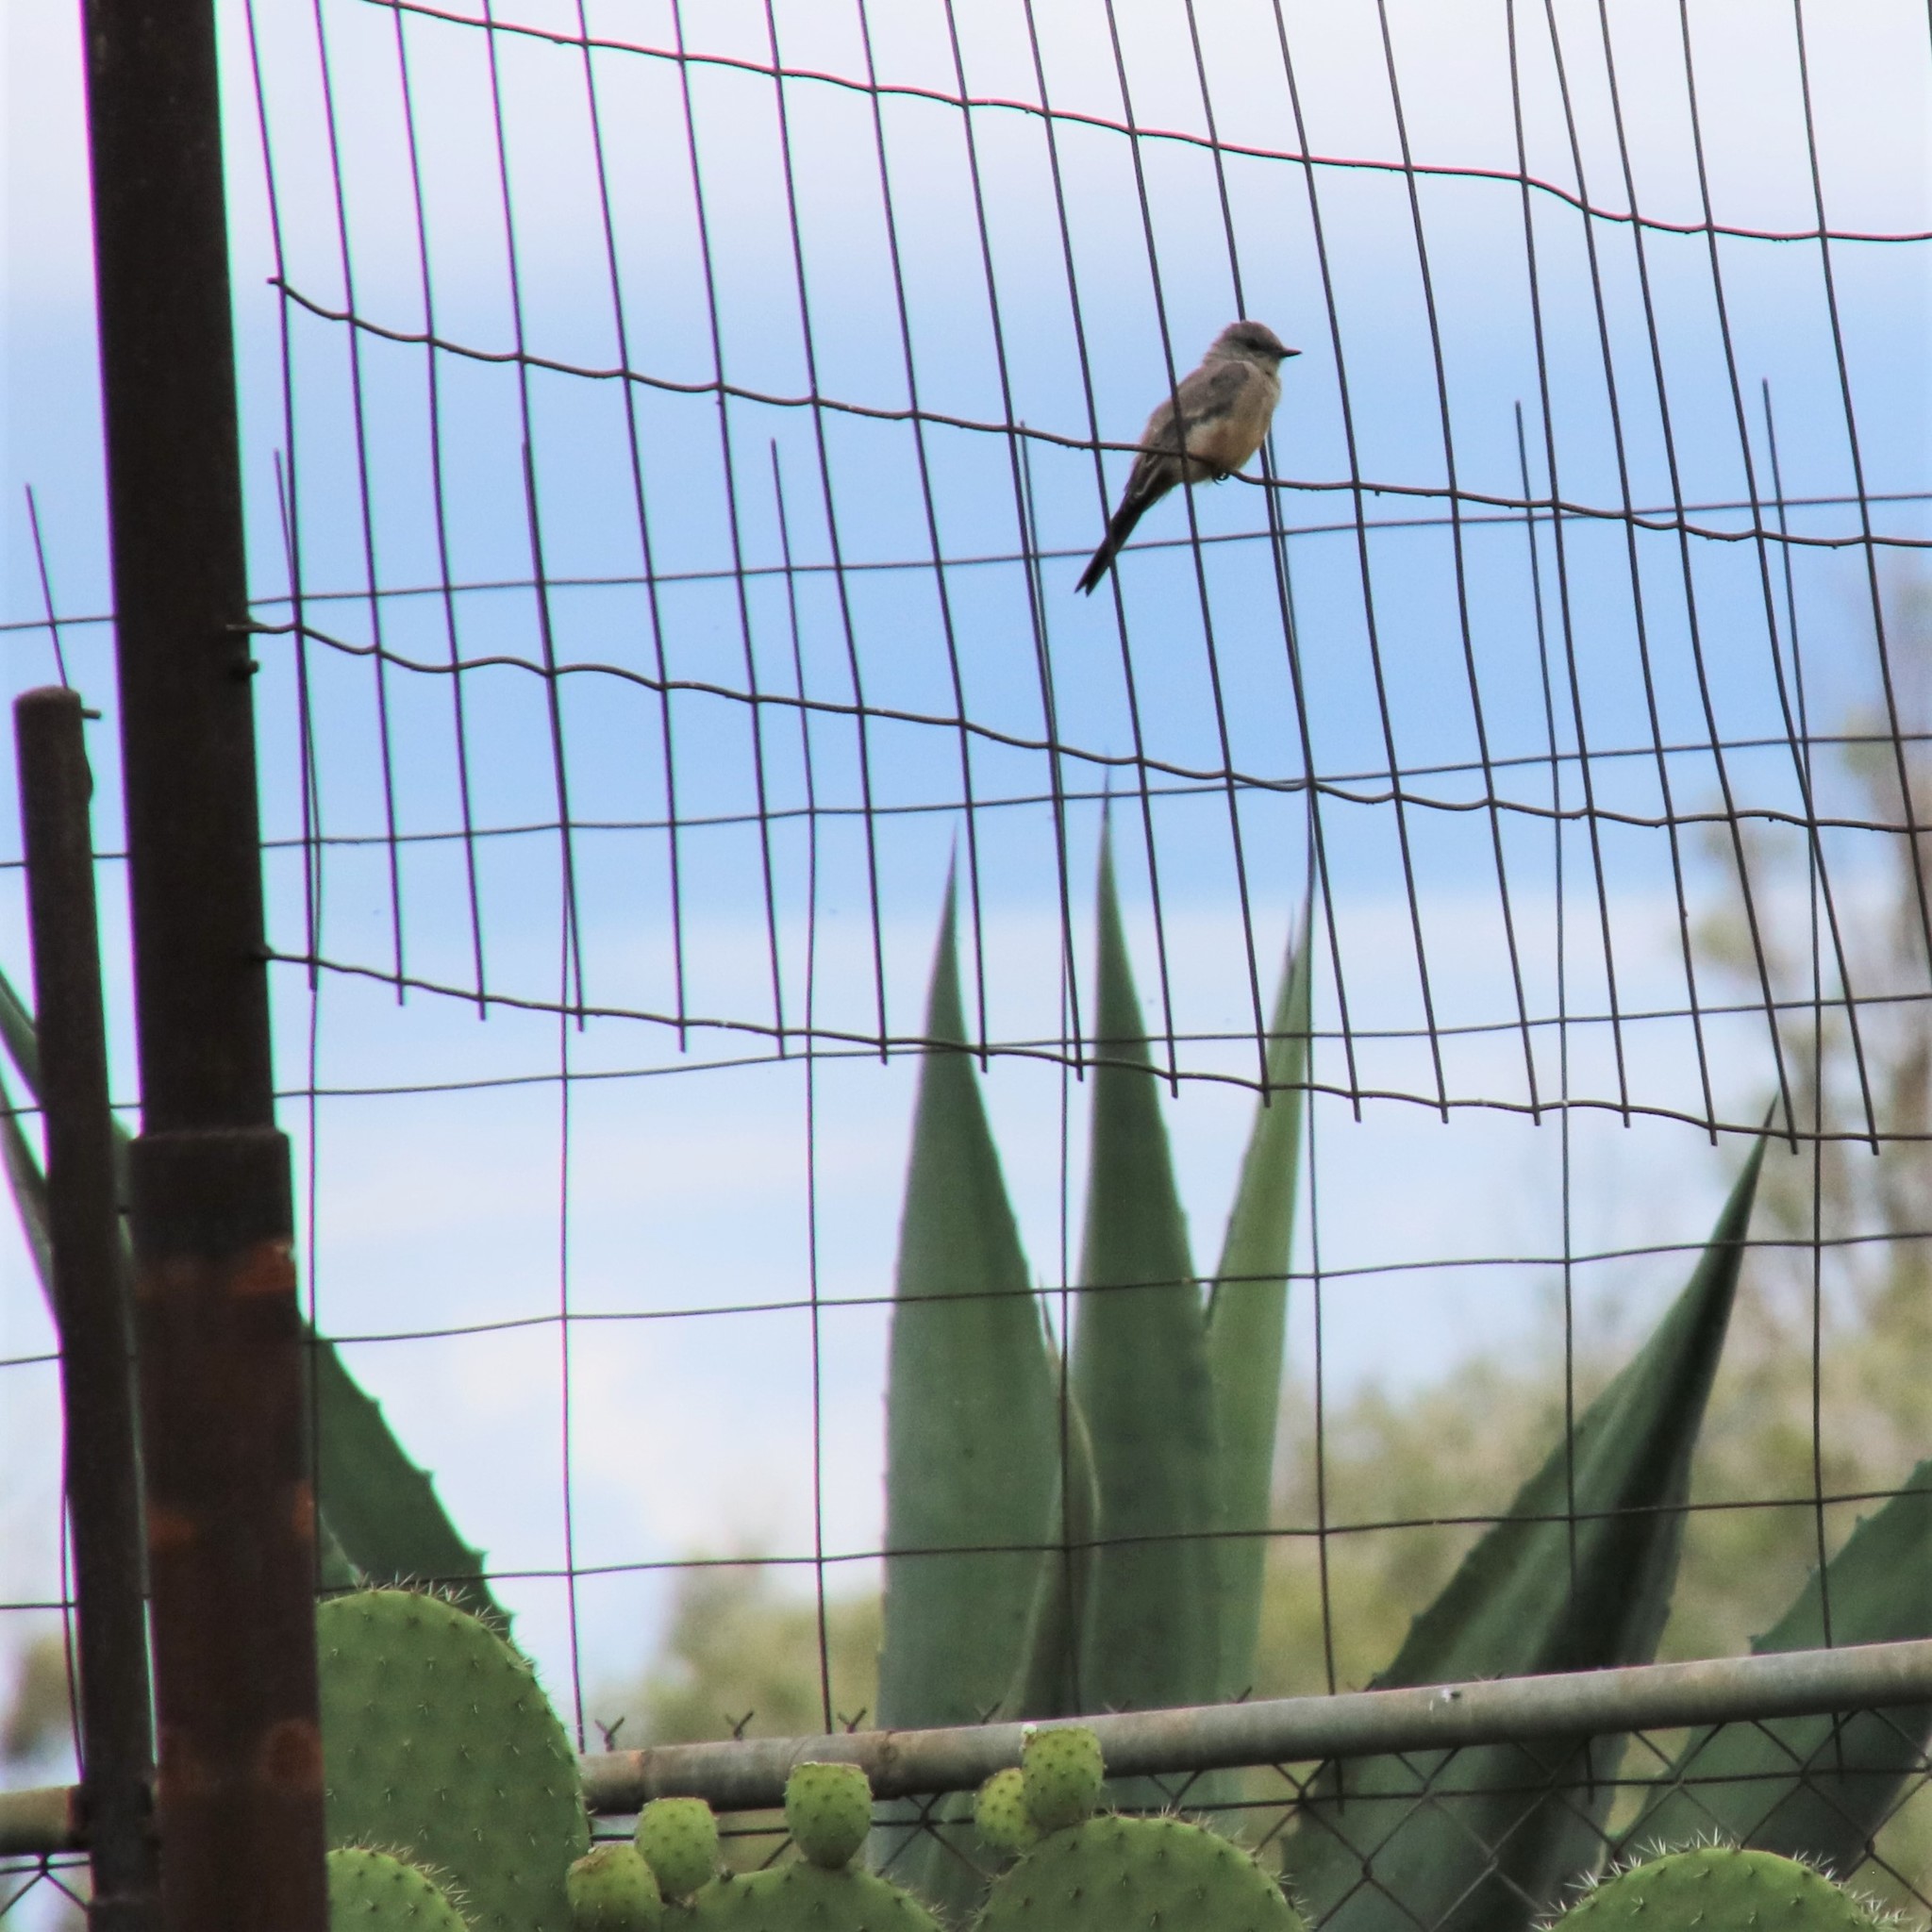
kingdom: Animalia
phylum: Chordata
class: Aves
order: Passeriformes
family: Tyrannidae
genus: Sayornis
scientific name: Sayornis saya
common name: Say's phoebe
